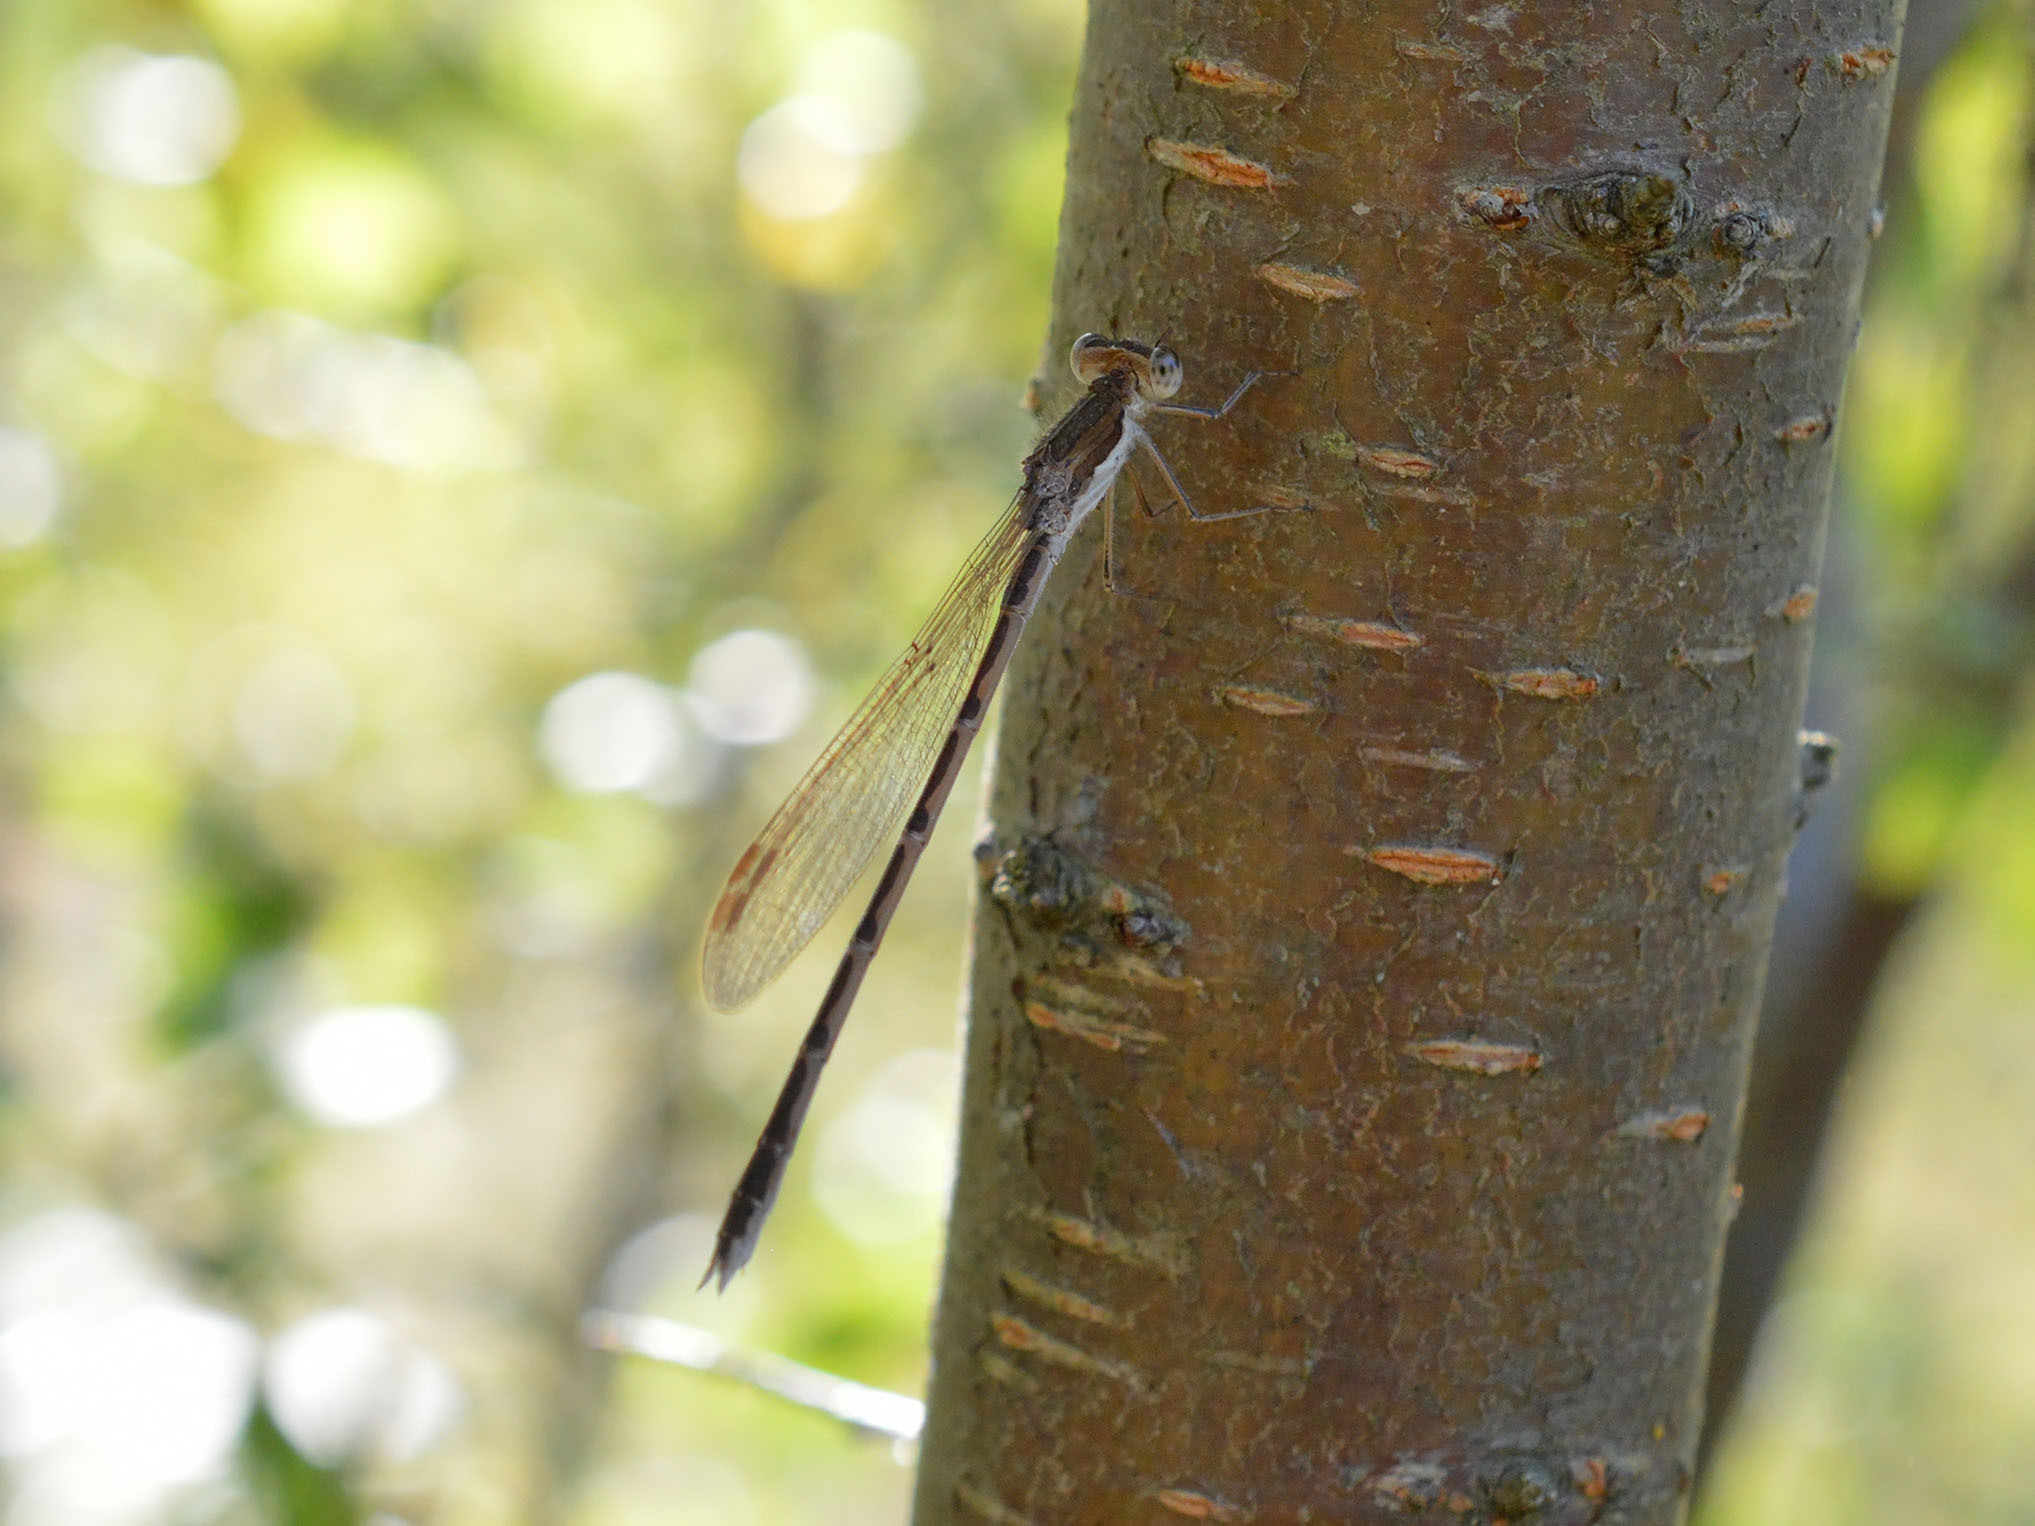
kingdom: Animalia
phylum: Arthropoda
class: Insecta
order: Odonata
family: Lestidae
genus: Sympecma
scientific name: Sympecma fusca
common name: Common winter damsel
